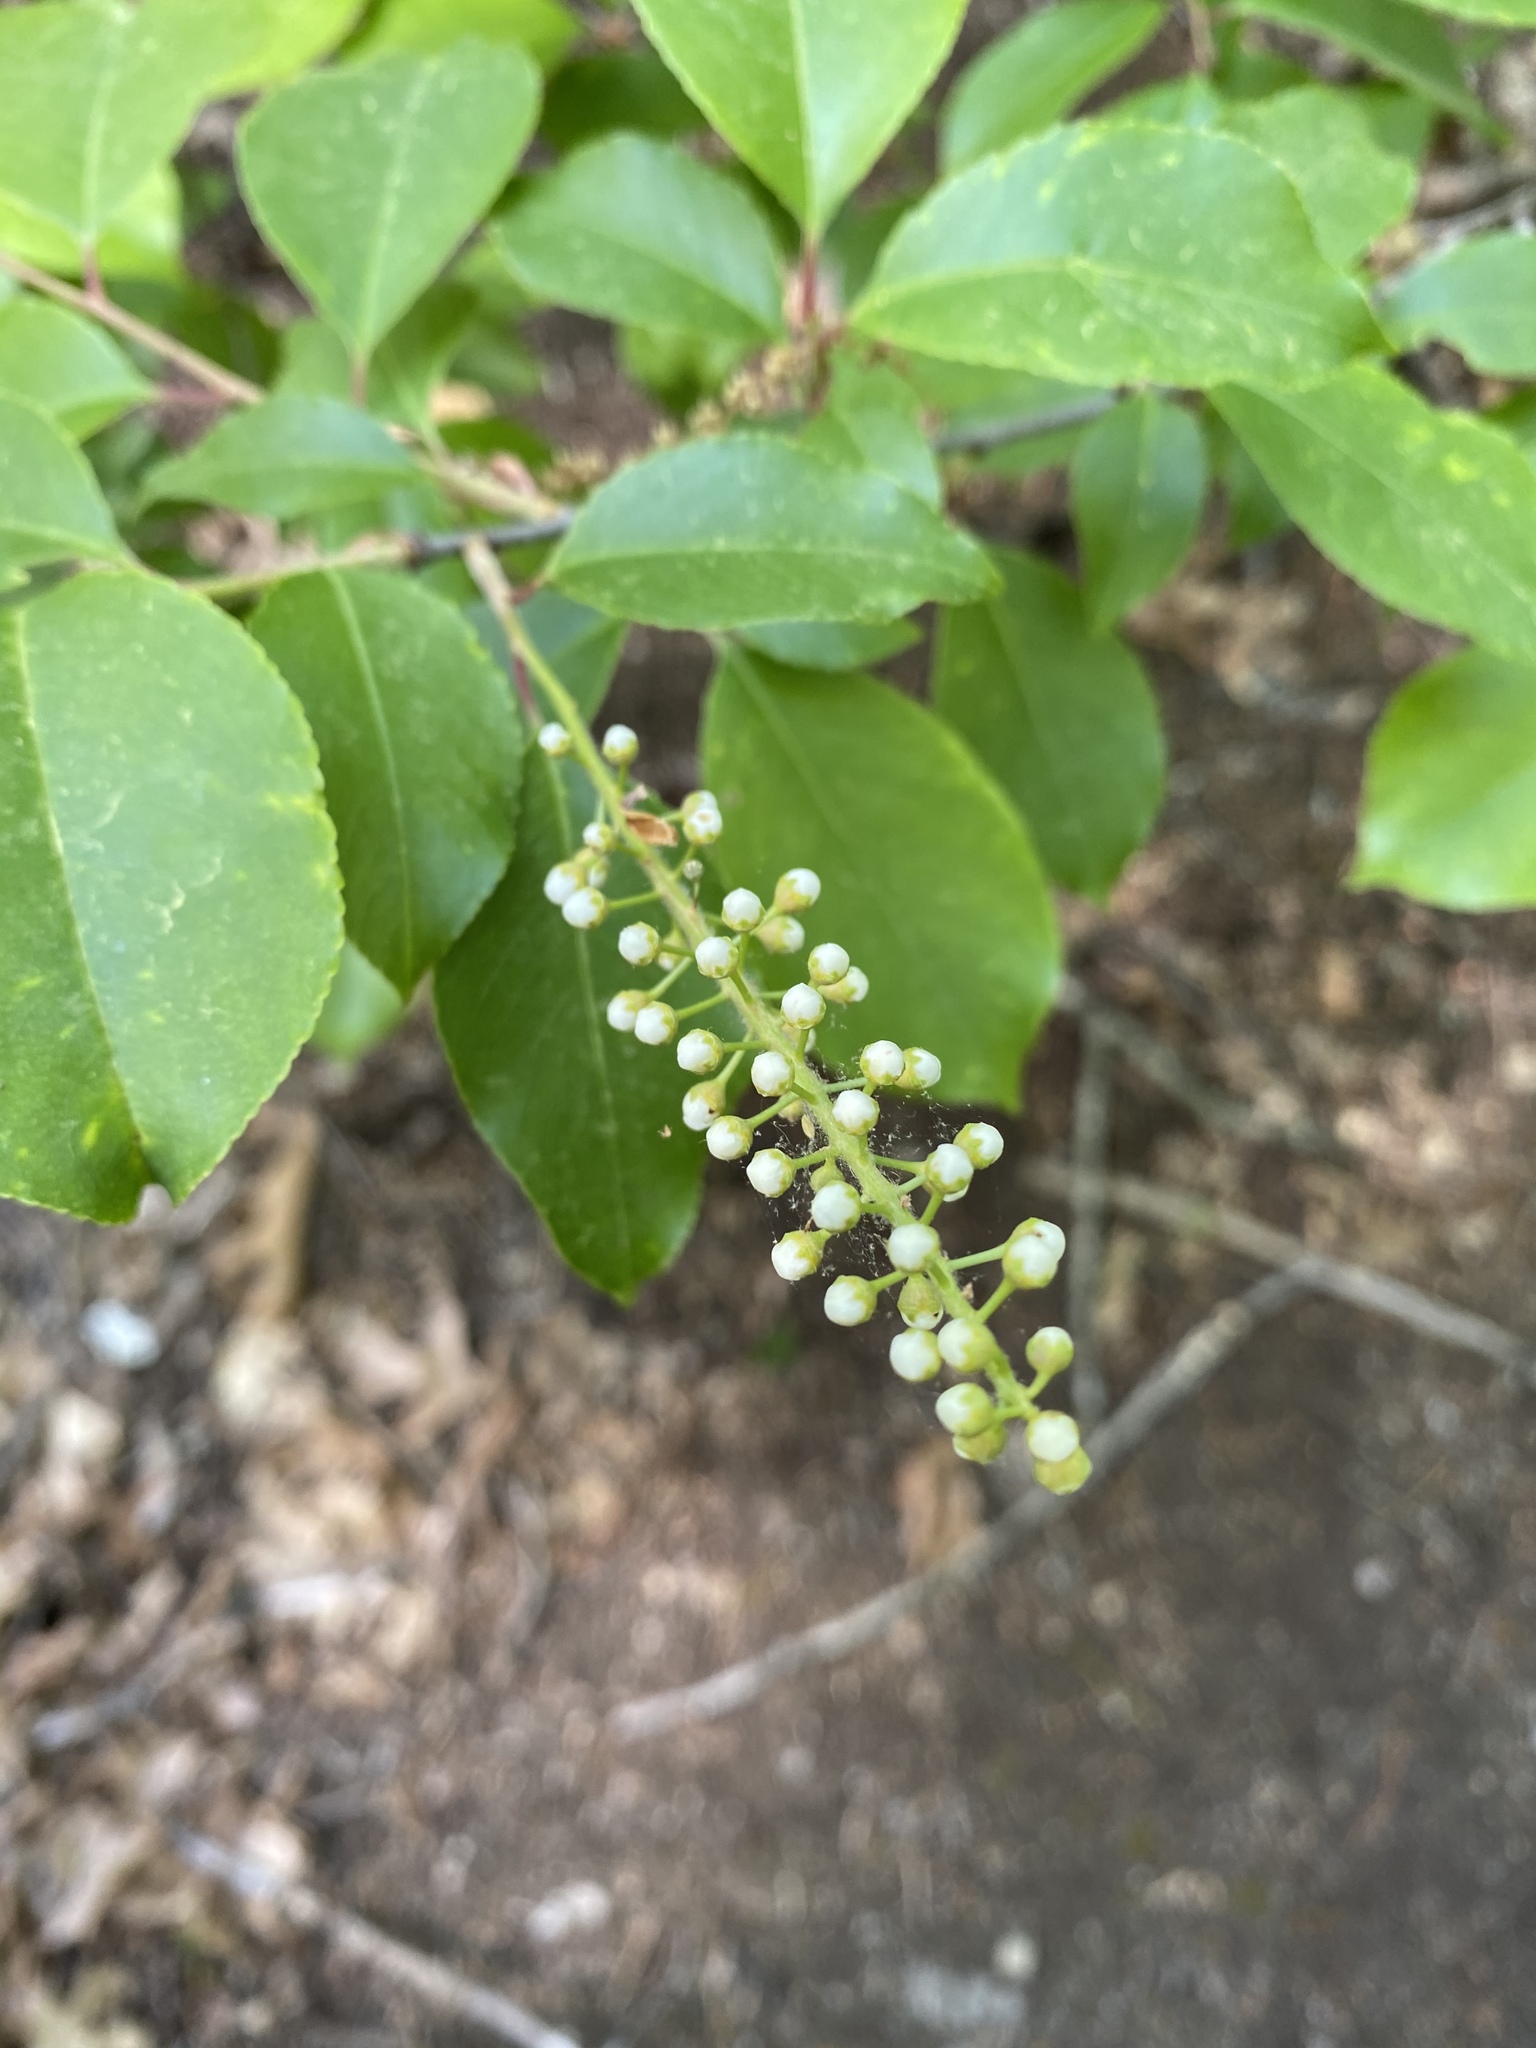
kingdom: Plantae
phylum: Tracheophyta
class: Magnoliopsida
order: Rosales
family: Rosaceae
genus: Prunus
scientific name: Prunus serotina
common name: Black cherry
